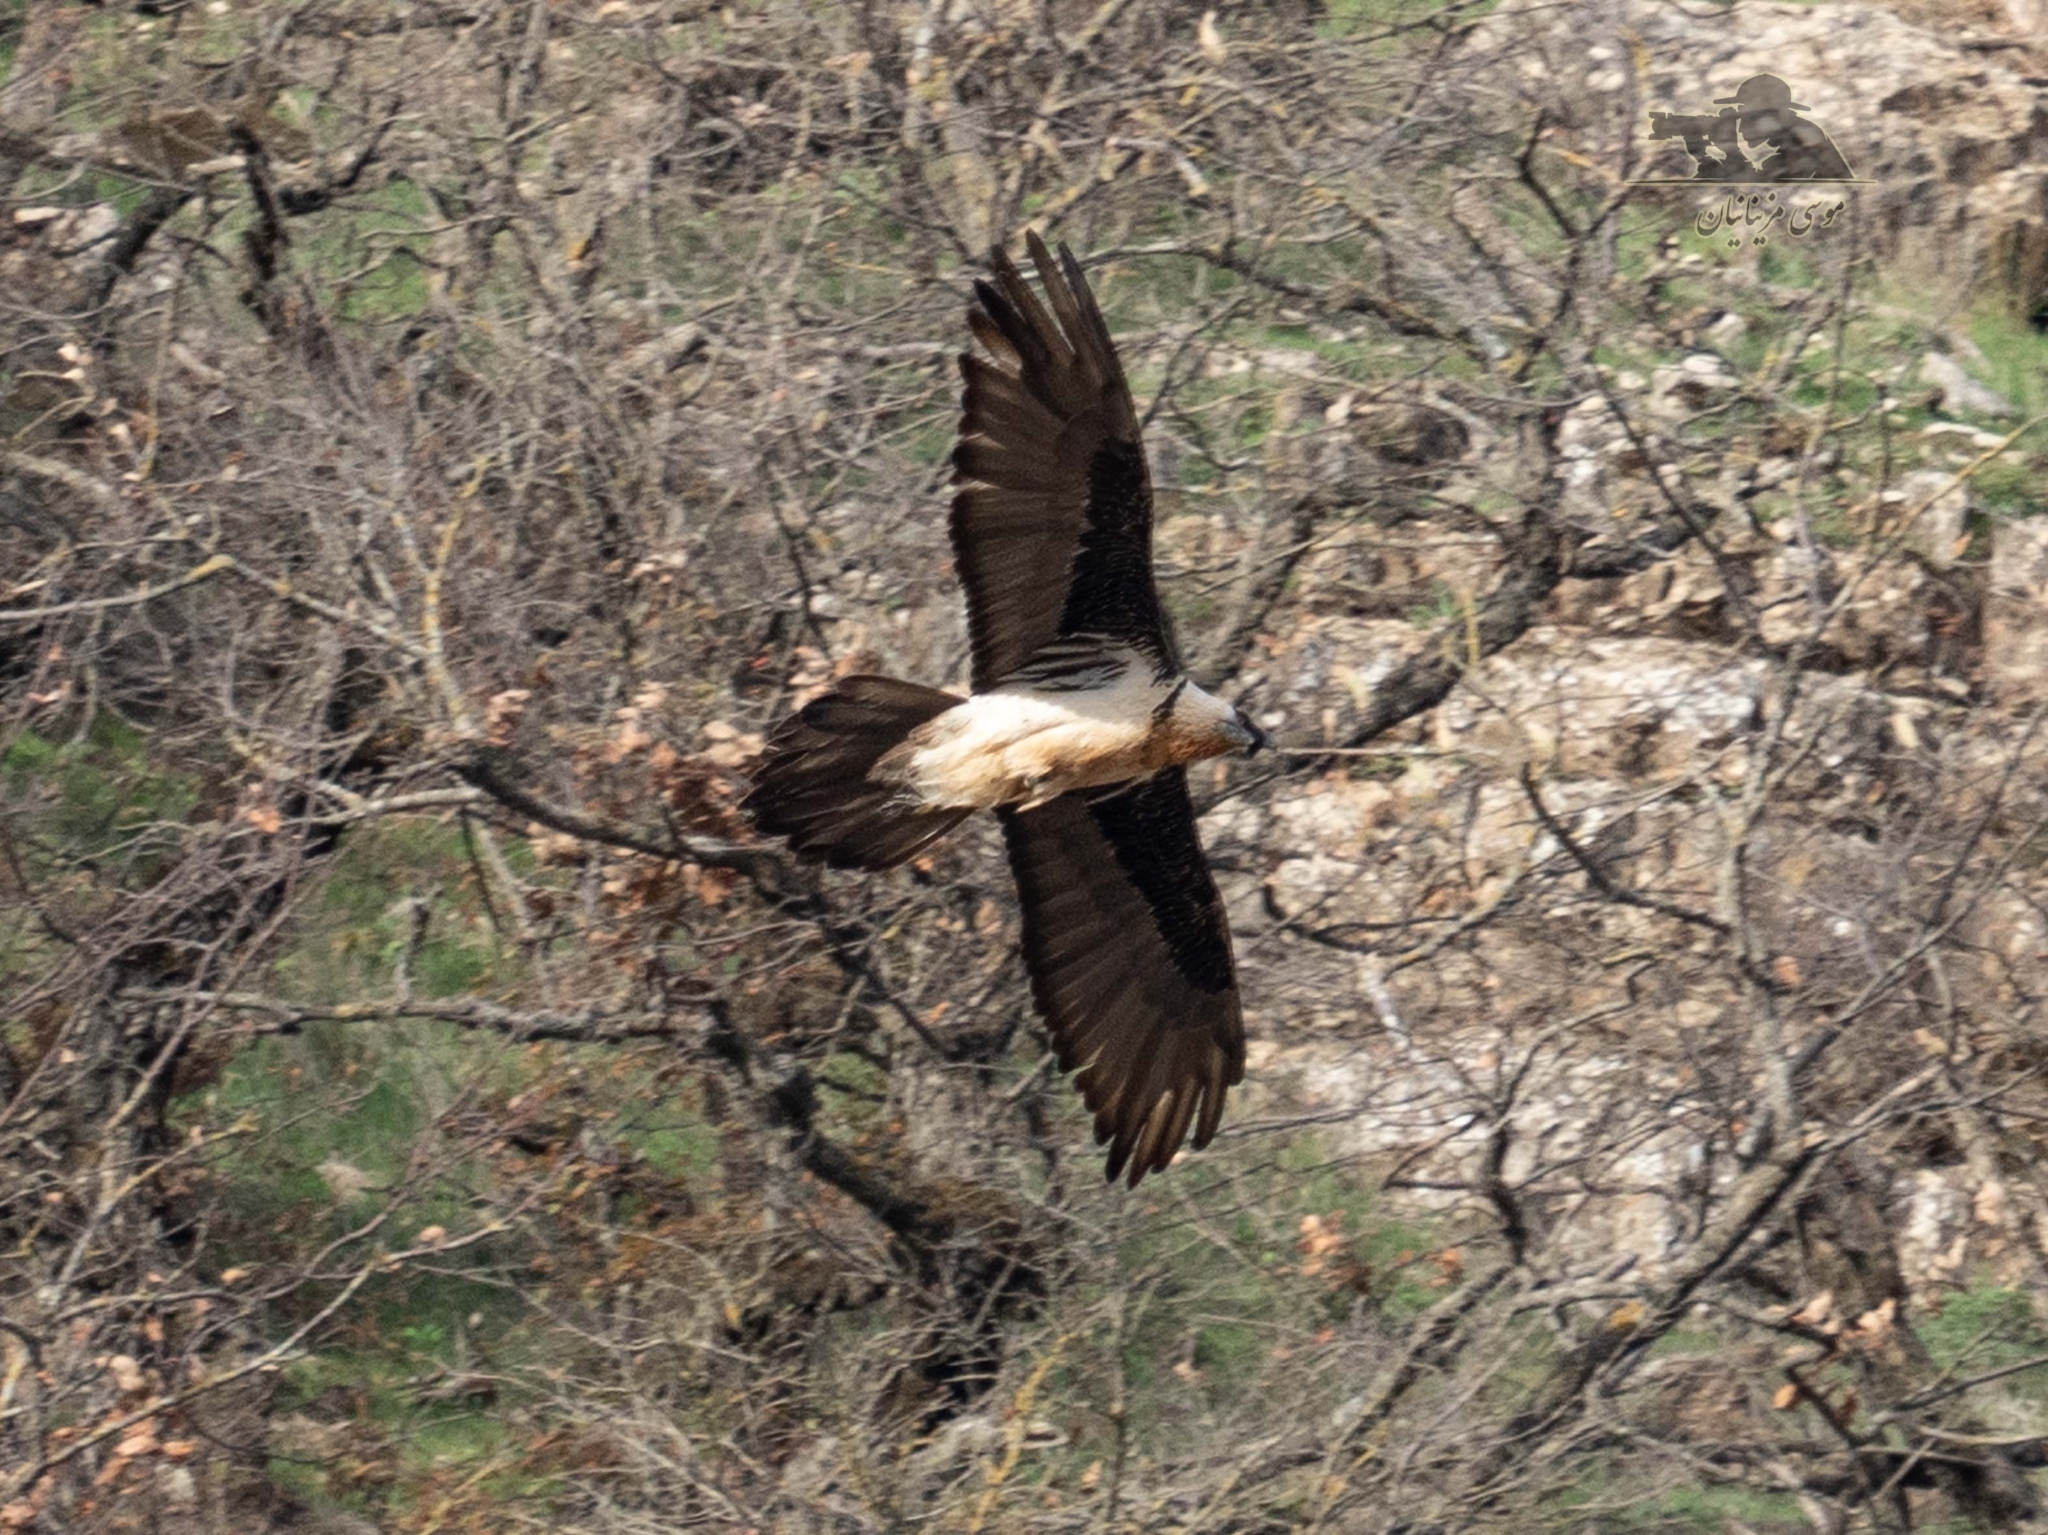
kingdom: Animalia
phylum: Chordata
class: Aves
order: Accipitriformes
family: Accipitridae
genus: Gypaetus
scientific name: Gypaetus barbatus
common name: Bearded vulture
